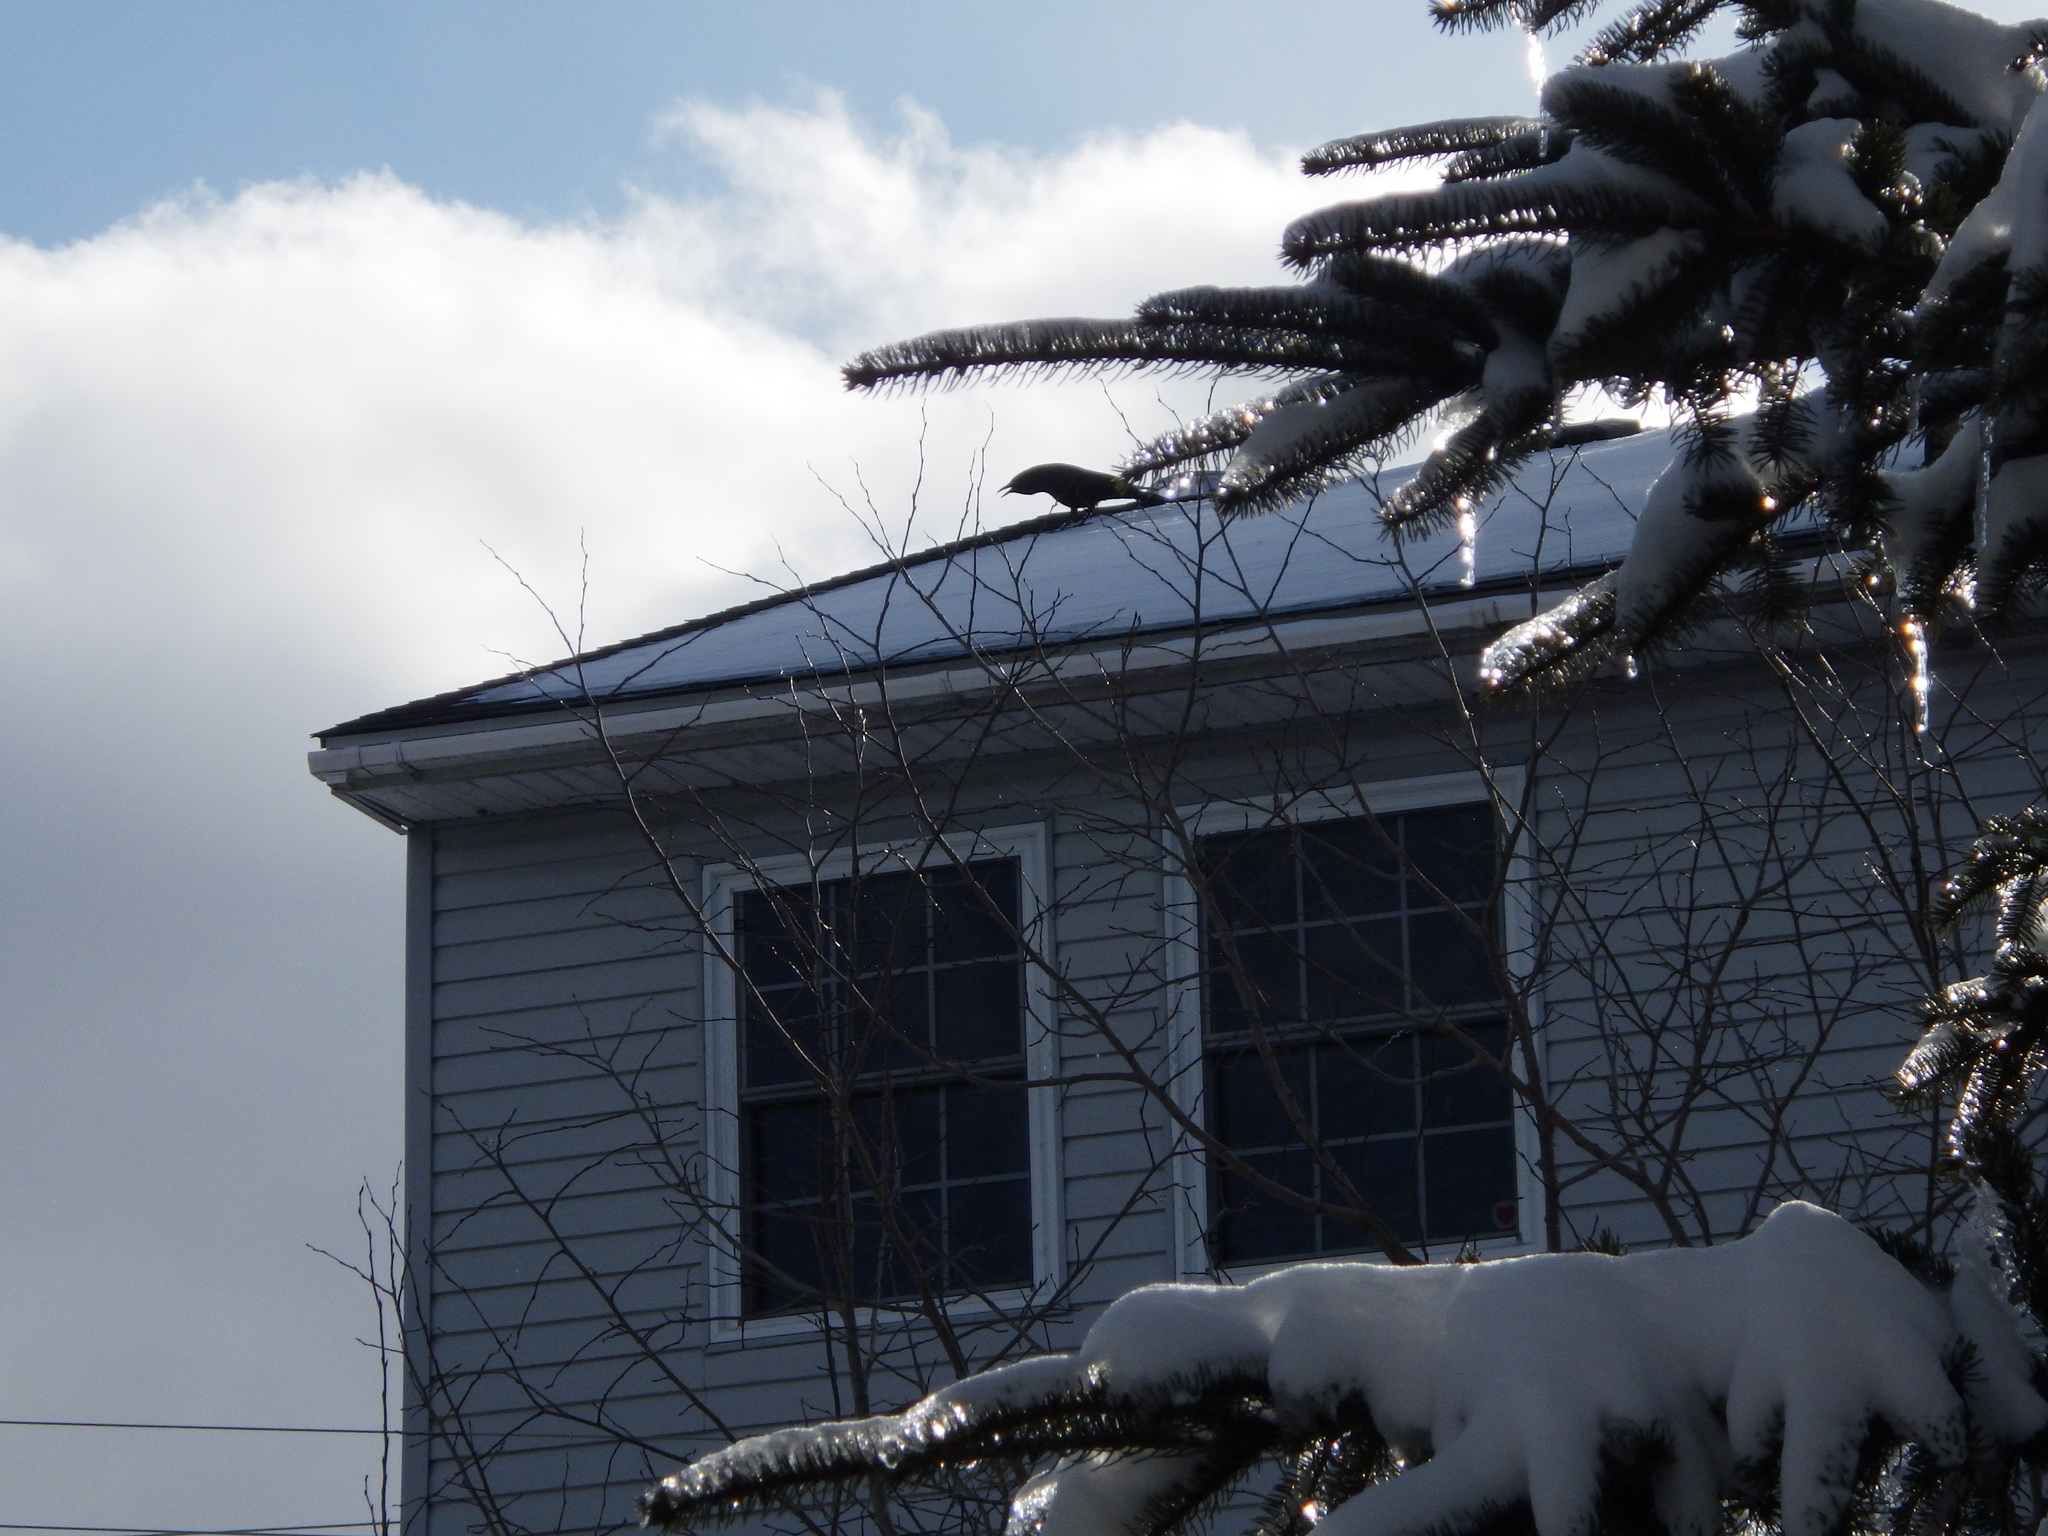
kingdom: Animalia
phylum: Chordata
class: Aves
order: Passeriformes
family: Corvidae
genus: Corvus
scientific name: Corvus brachyrhynchos
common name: American crow
